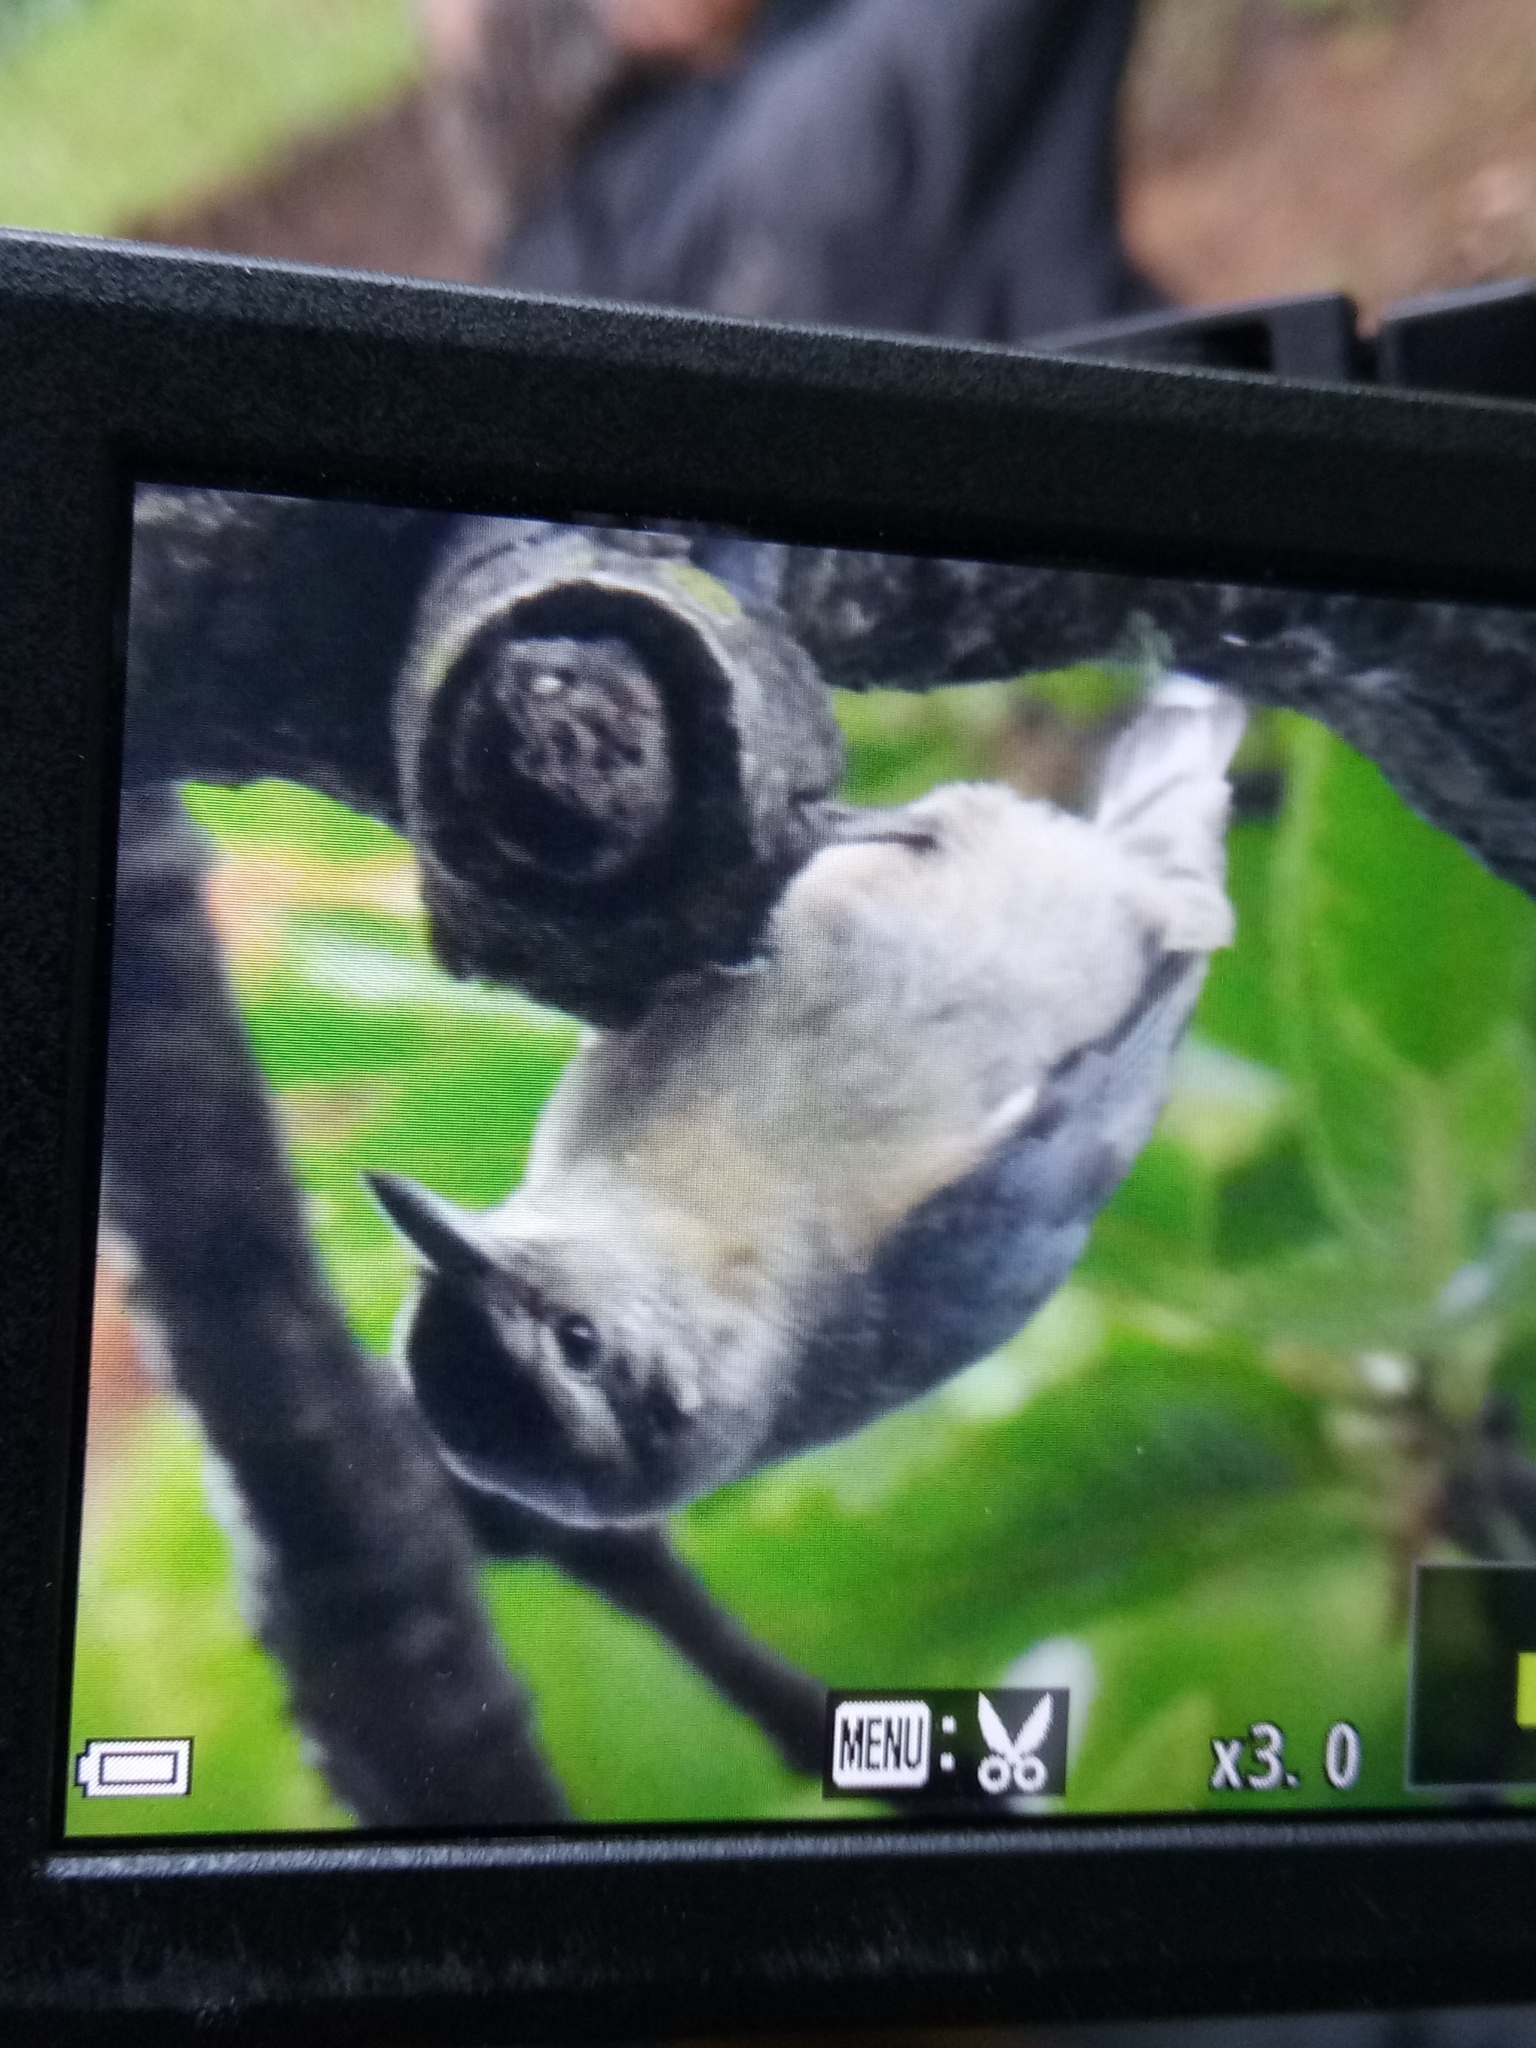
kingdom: Animalia
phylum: Chordata
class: Aves
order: Passeriformes
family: Sittidae
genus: Sitta
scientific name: Sitta ledanti
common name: Algerian nuthatch
